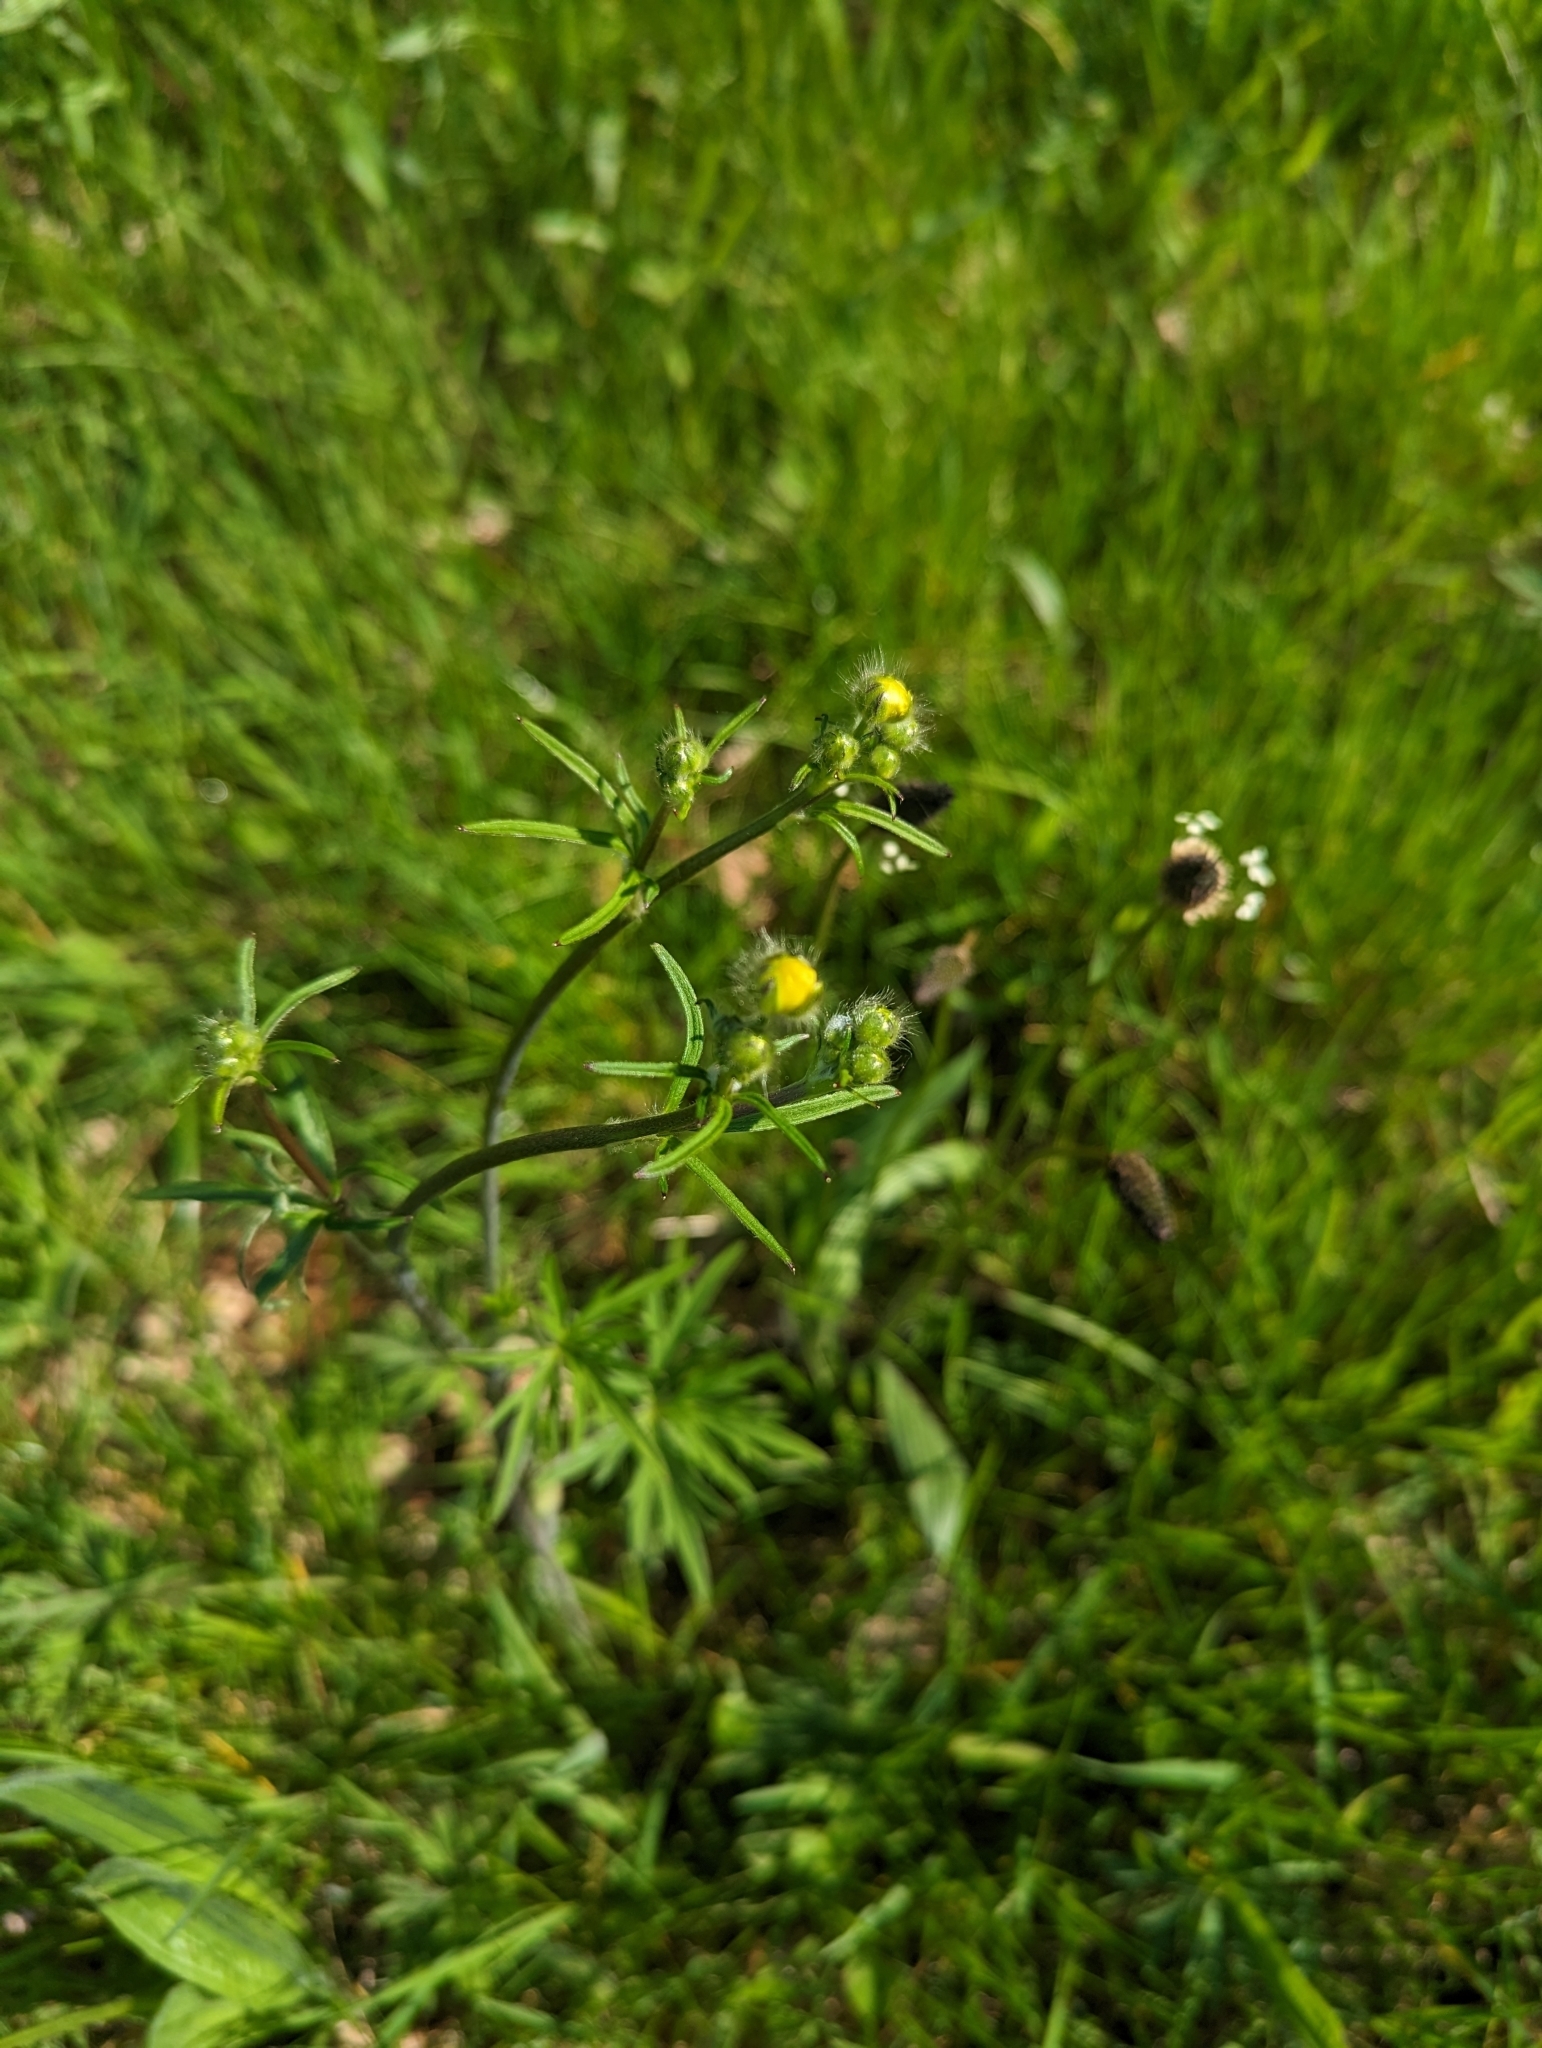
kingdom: Plantae
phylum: Tracheophyta
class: Magnoliopsida
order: Ranunculales
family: Ranunculaceae
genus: Ranunculus
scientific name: Ranunculus acris
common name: Meadow buttercup
